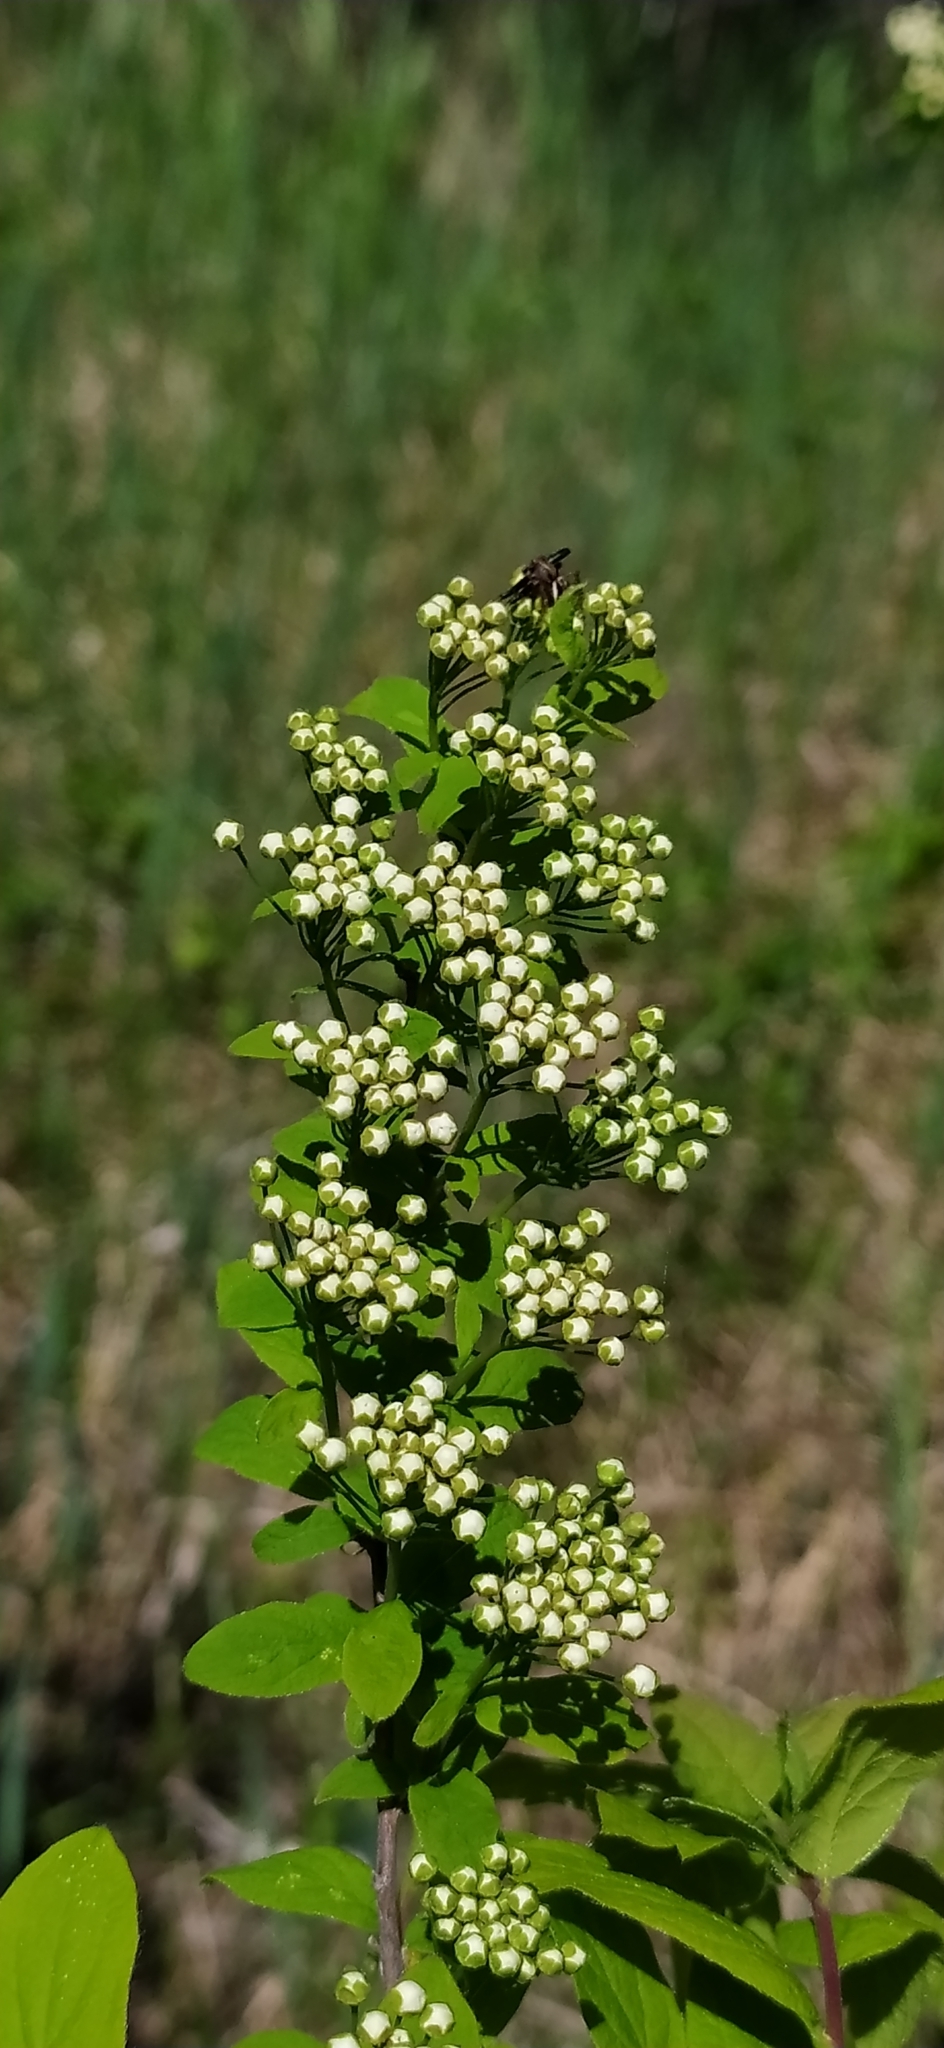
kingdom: Plantae
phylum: Tracheophyta
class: Magnoliopsida
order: Rosales
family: Rosaceae
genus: Spiraea
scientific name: Spiraea media
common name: Russian spiraea
